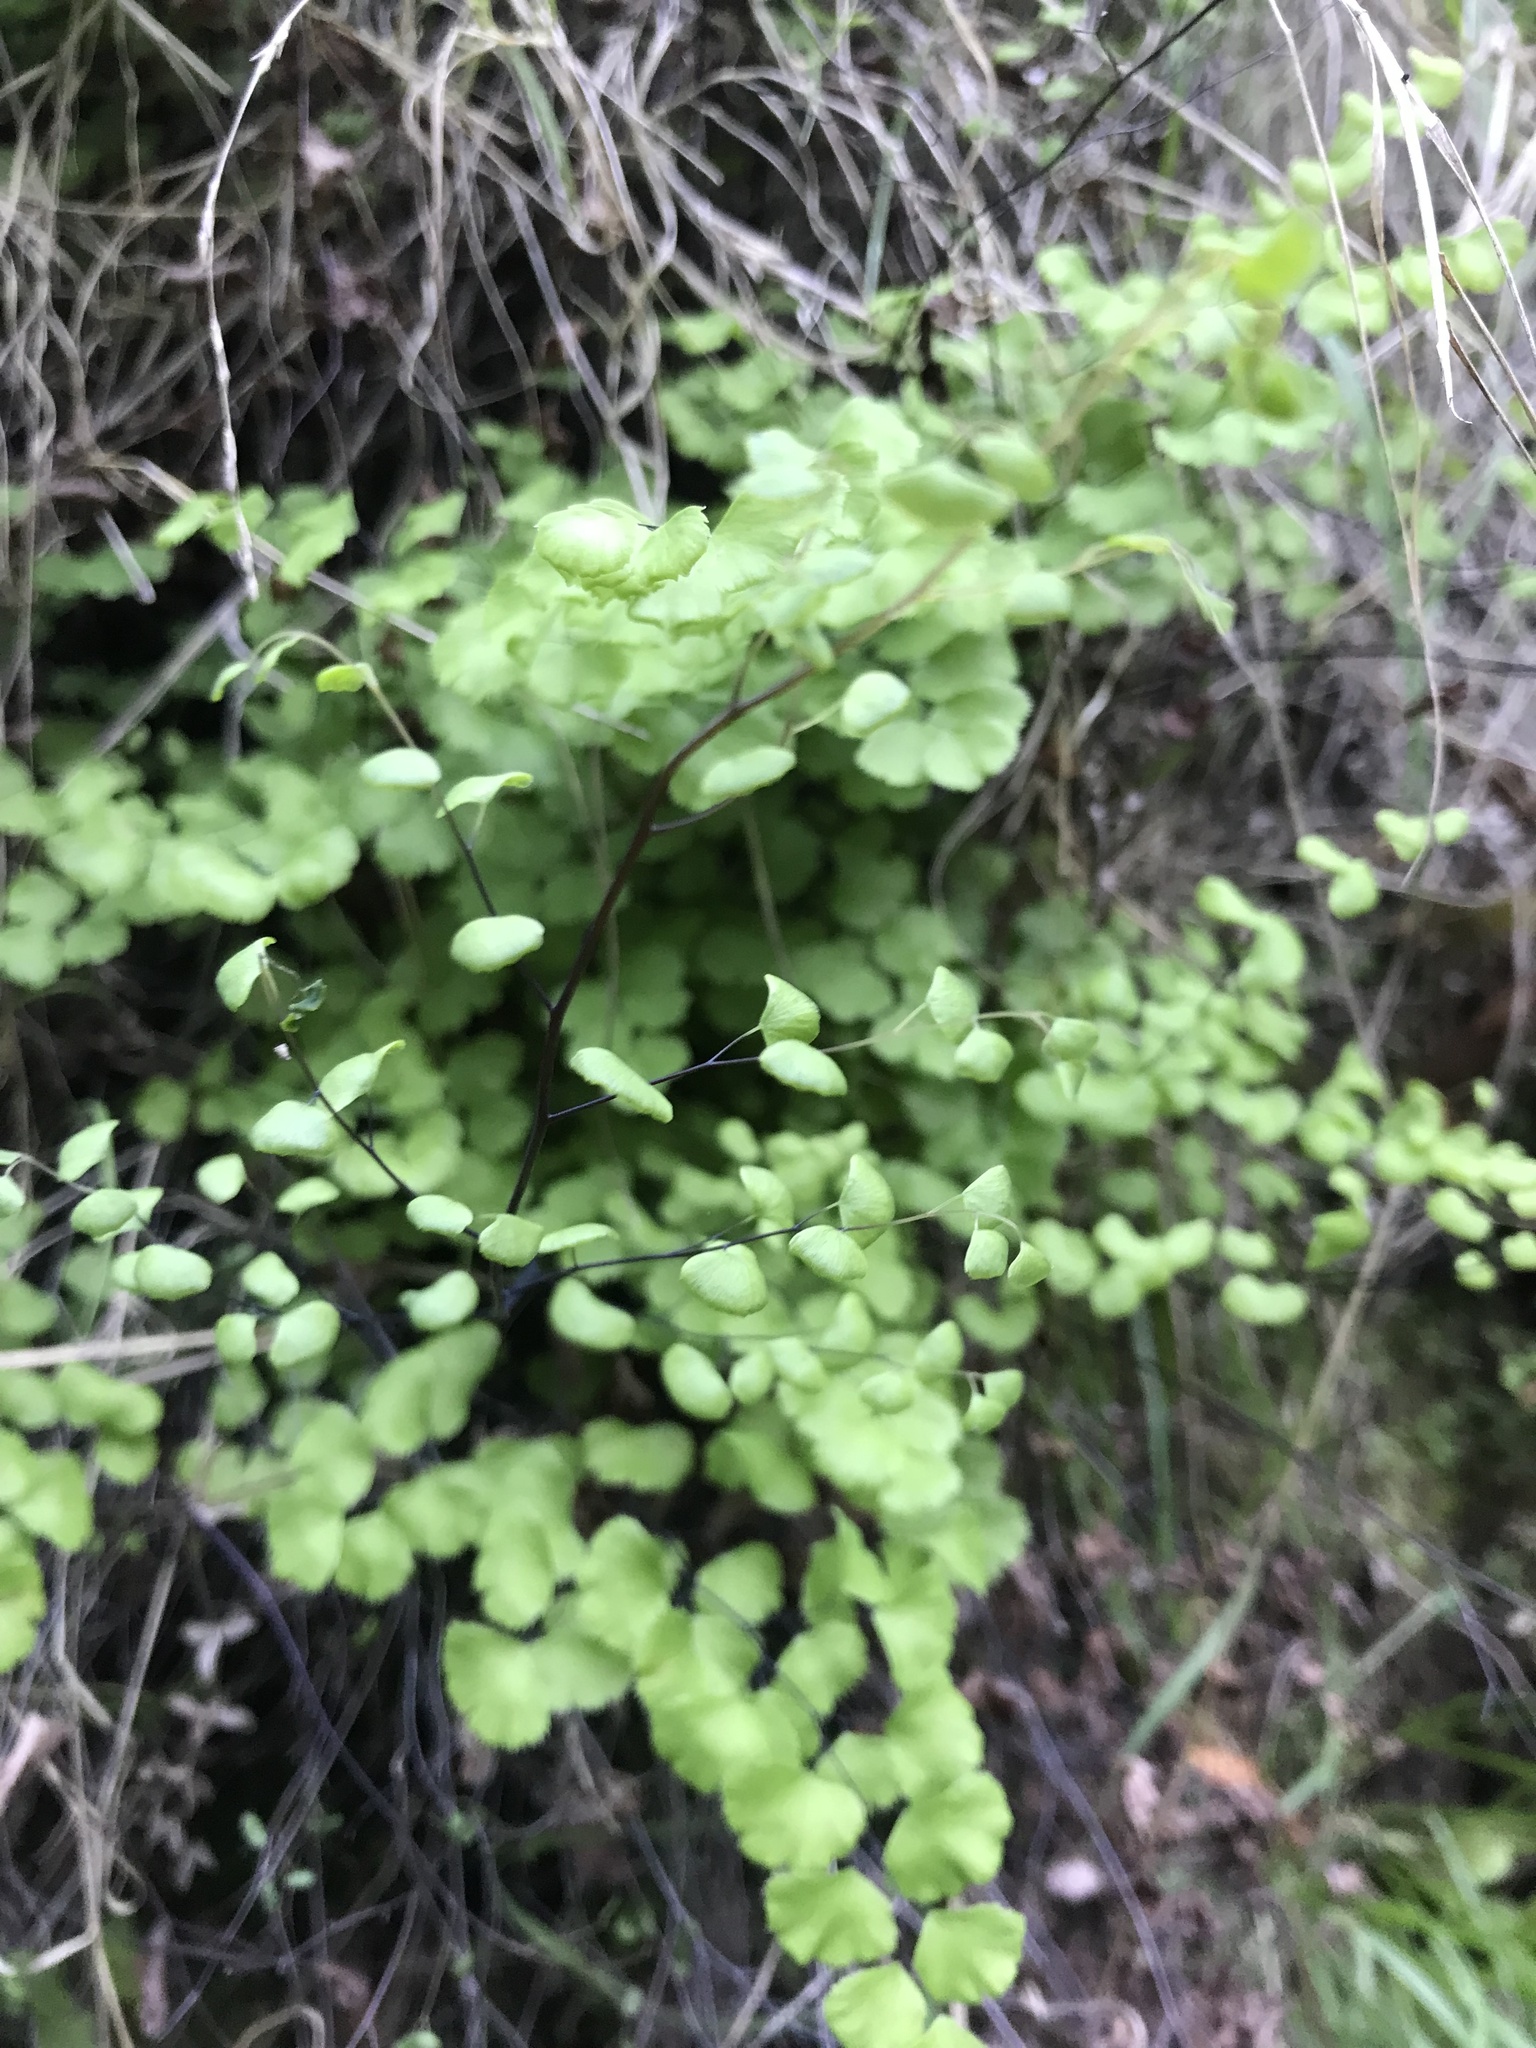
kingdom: Plantae
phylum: Tracheophyta
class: Polypodiopsida
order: Polypodiales
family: Pteridaceae
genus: Adiantum
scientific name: Adiantum jordanii
